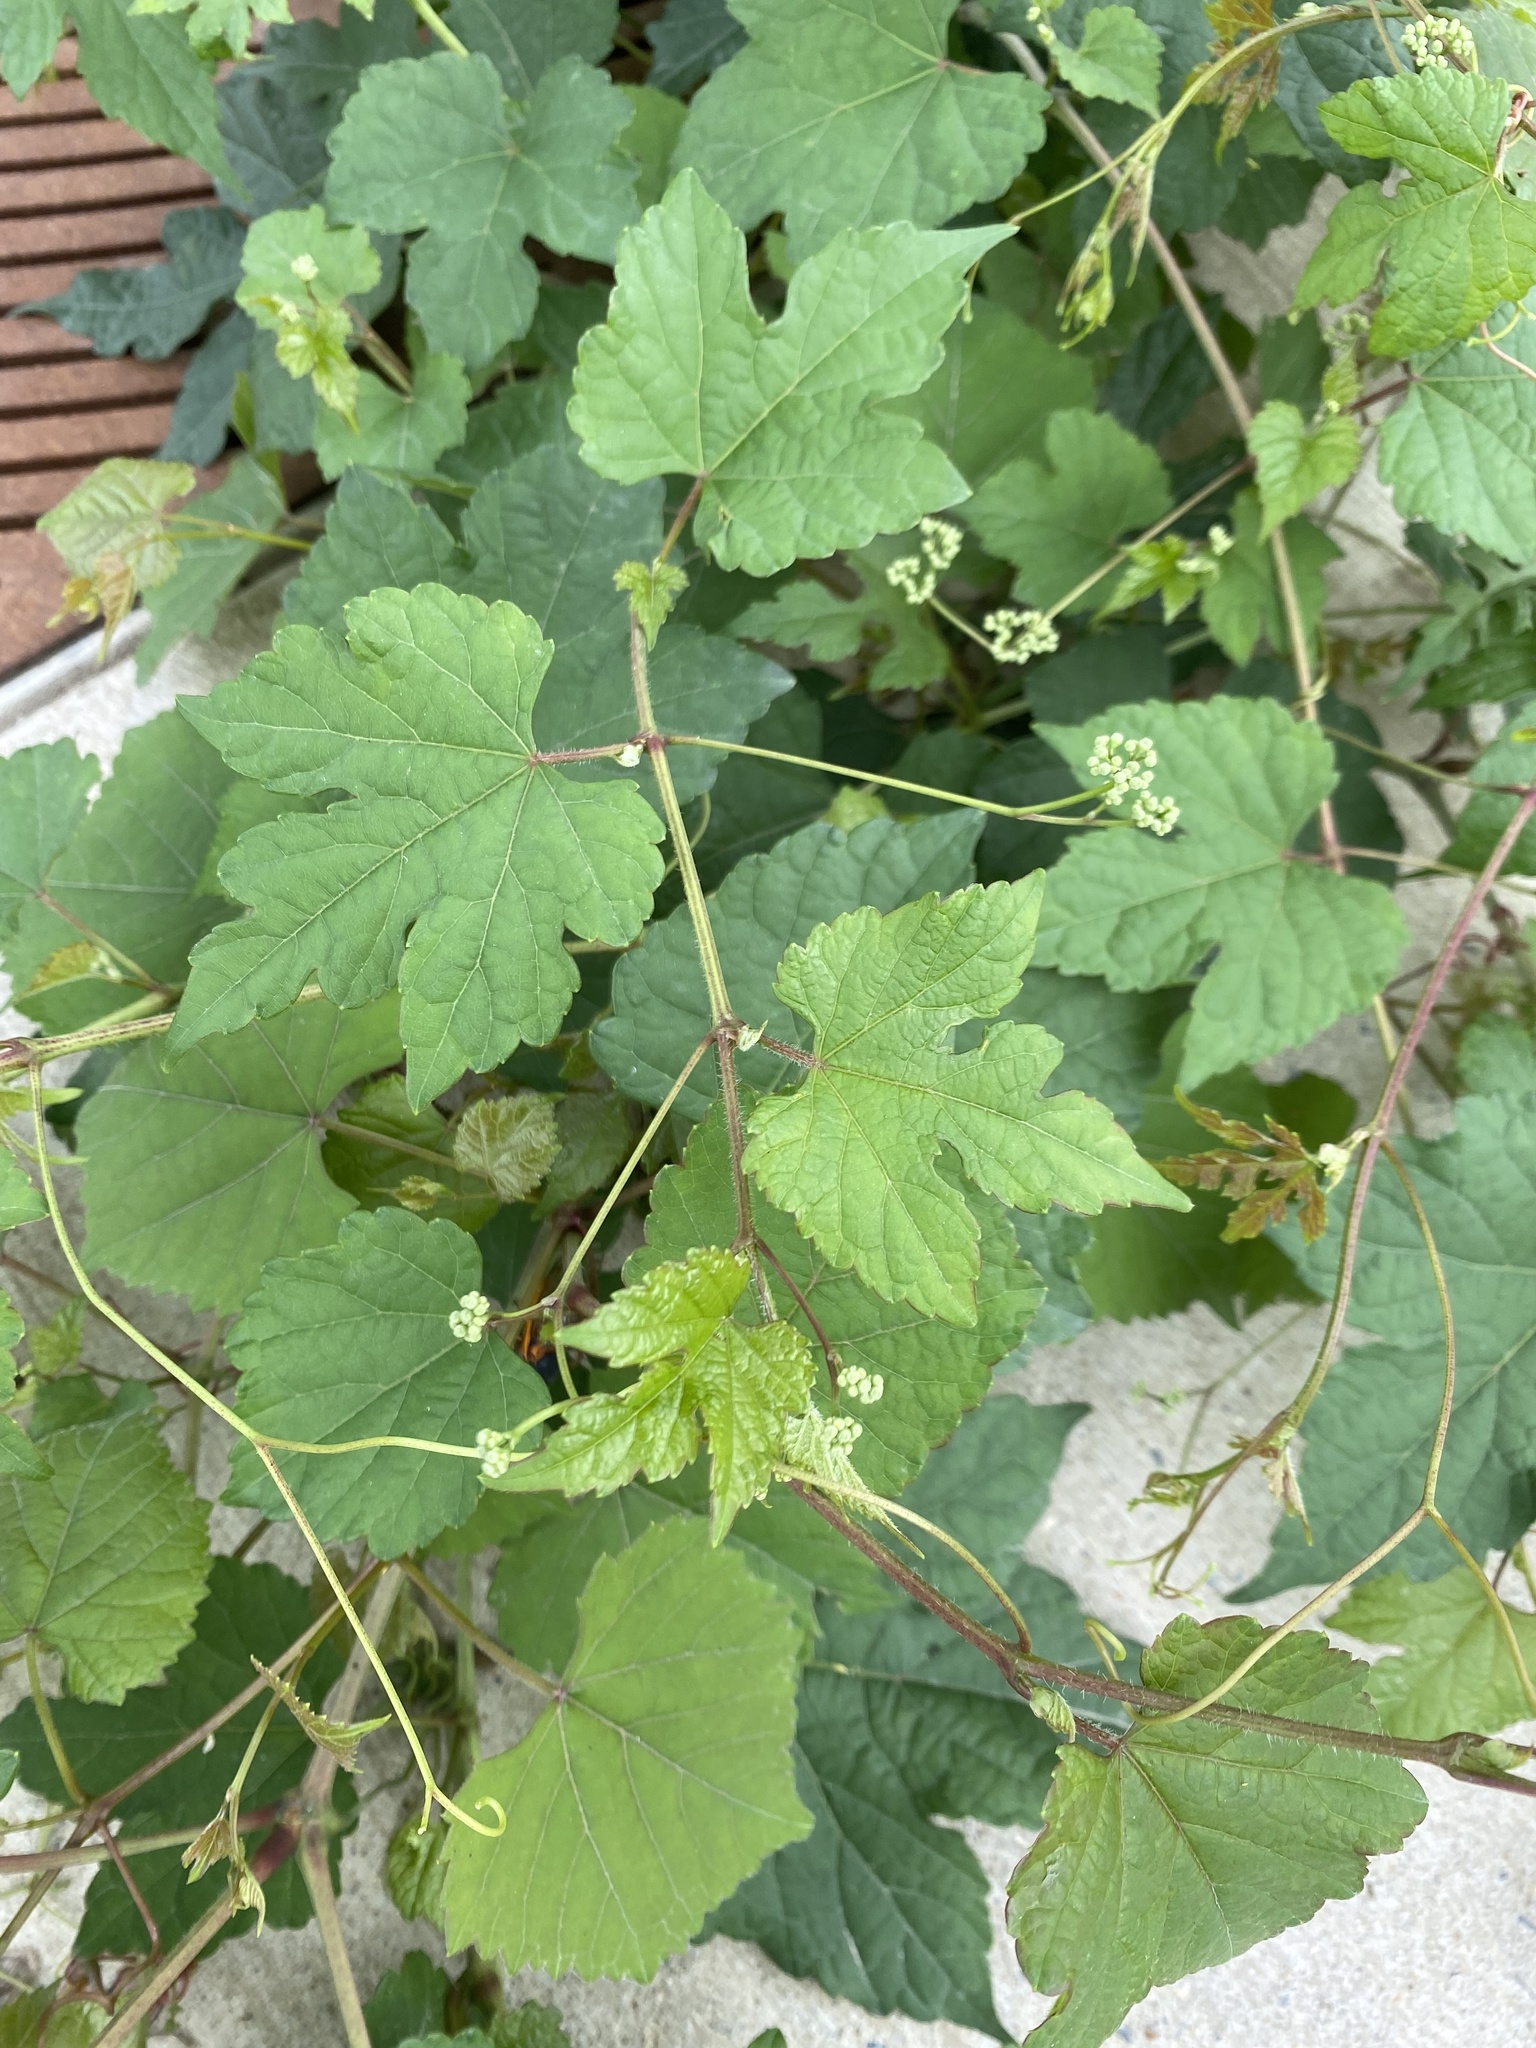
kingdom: Plantae
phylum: Tracheophyta
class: Magnoliopsida
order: Vitales
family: Vitaceae
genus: Ampelopsis
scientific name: Ampelopsis glandulosa
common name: Amur peppervine
